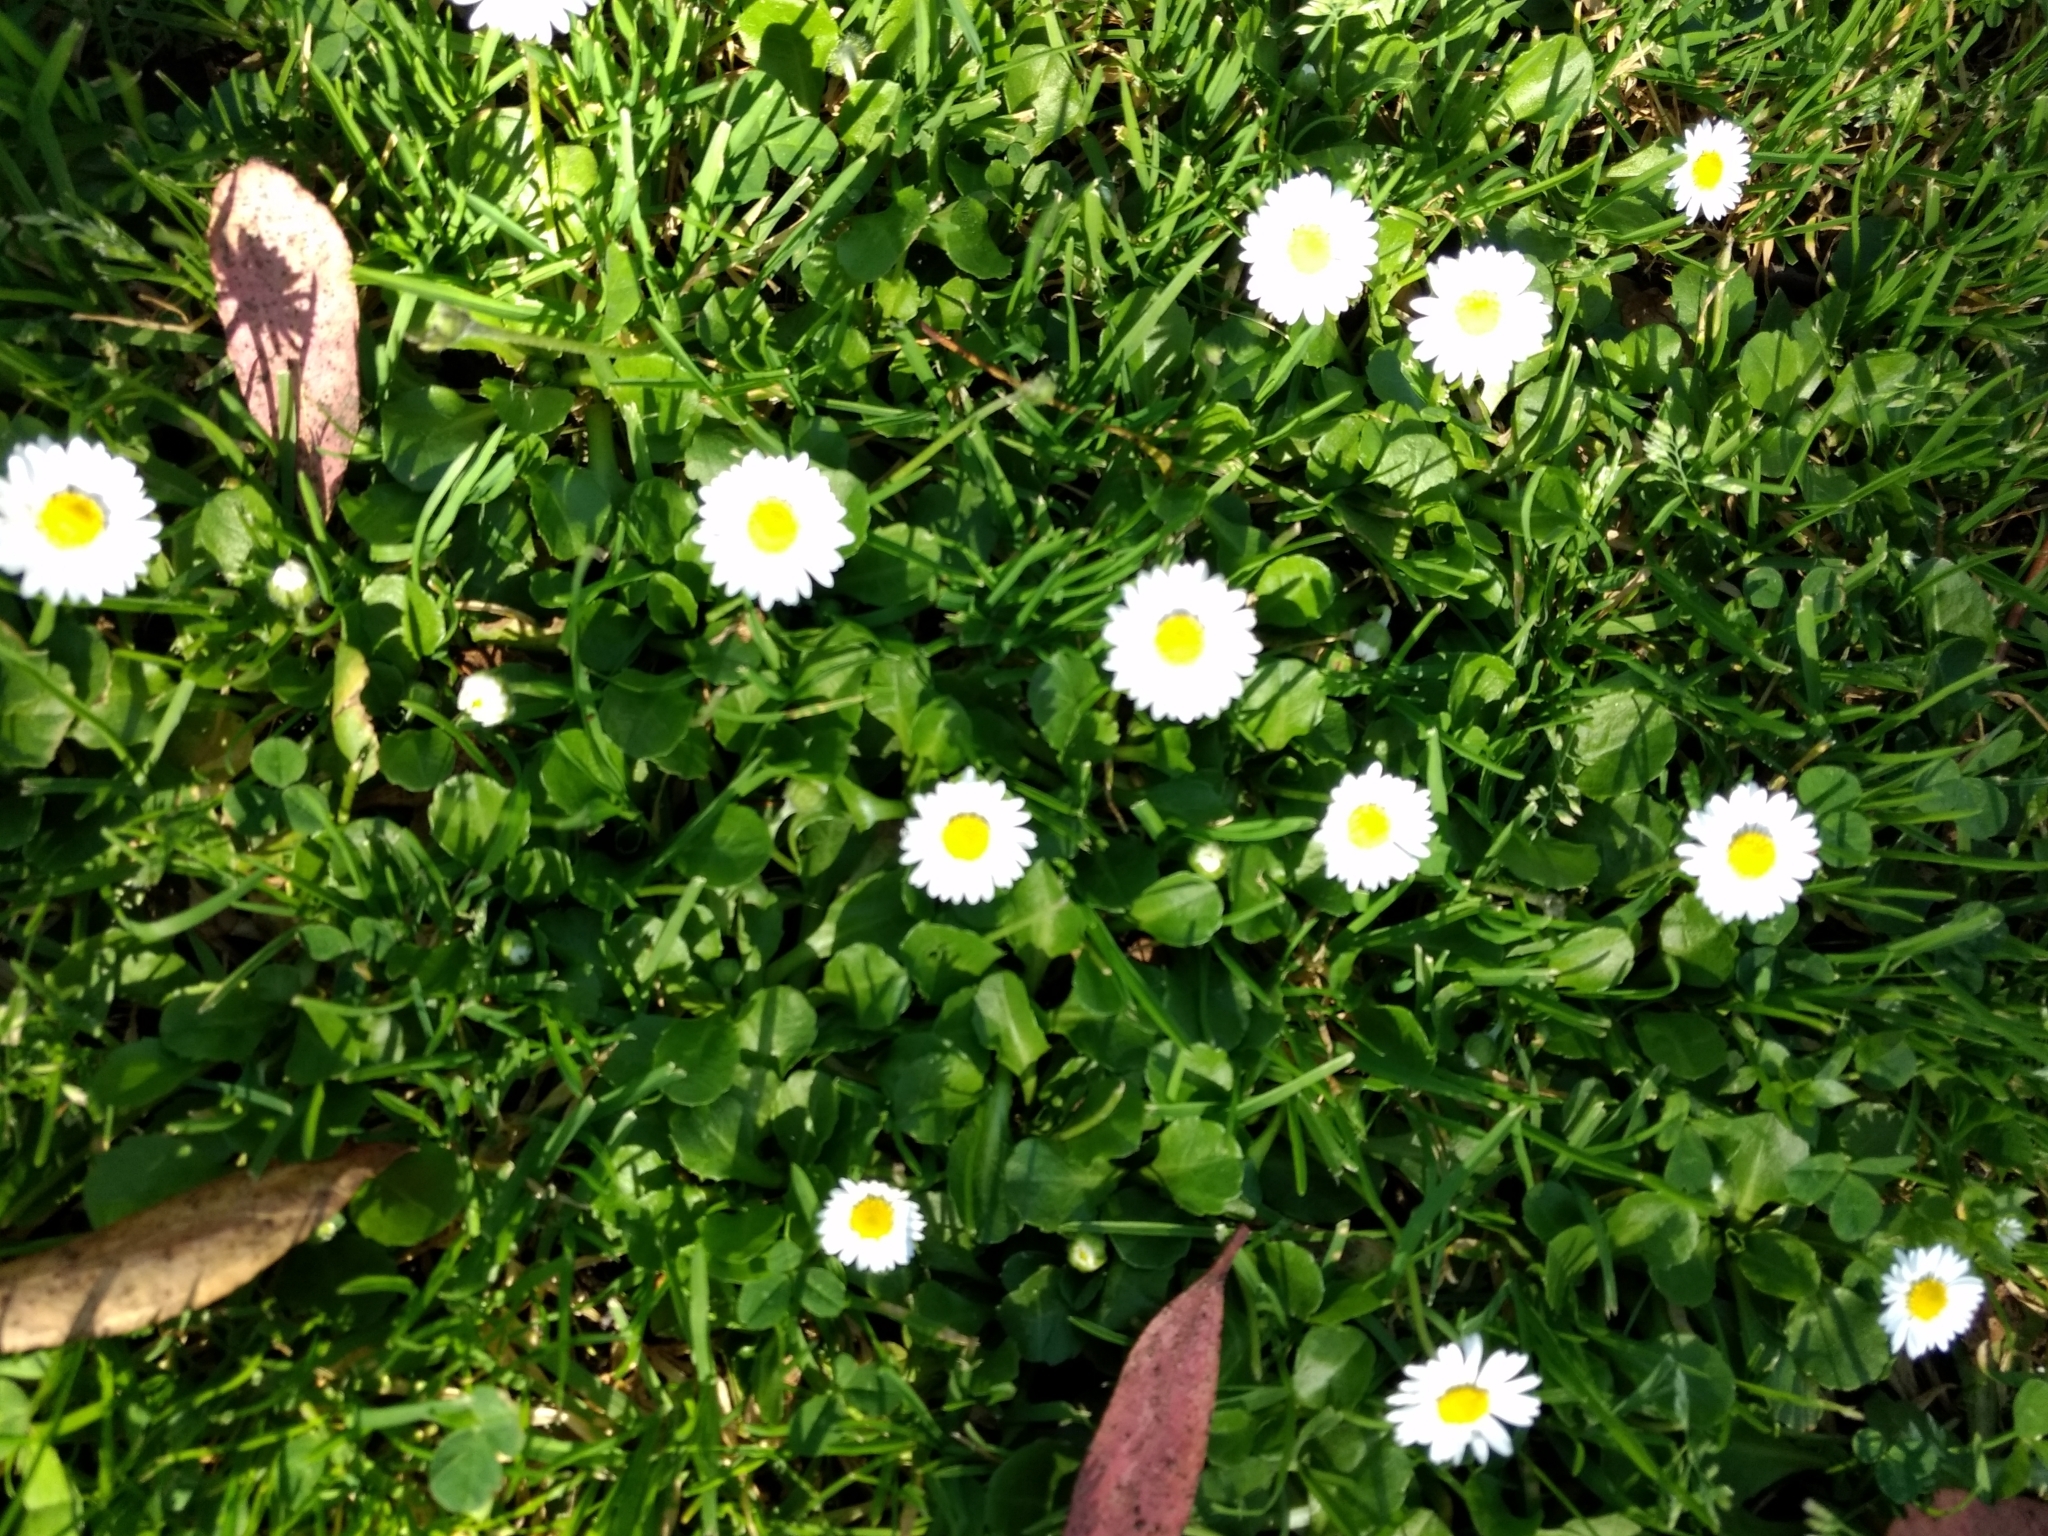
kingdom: Plantae
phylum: Tracheophyta
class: Magnoliopsida
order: Asterales
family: Asteraceae
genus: Bellis
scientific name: Bellis perennis
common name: Lawndaisy
